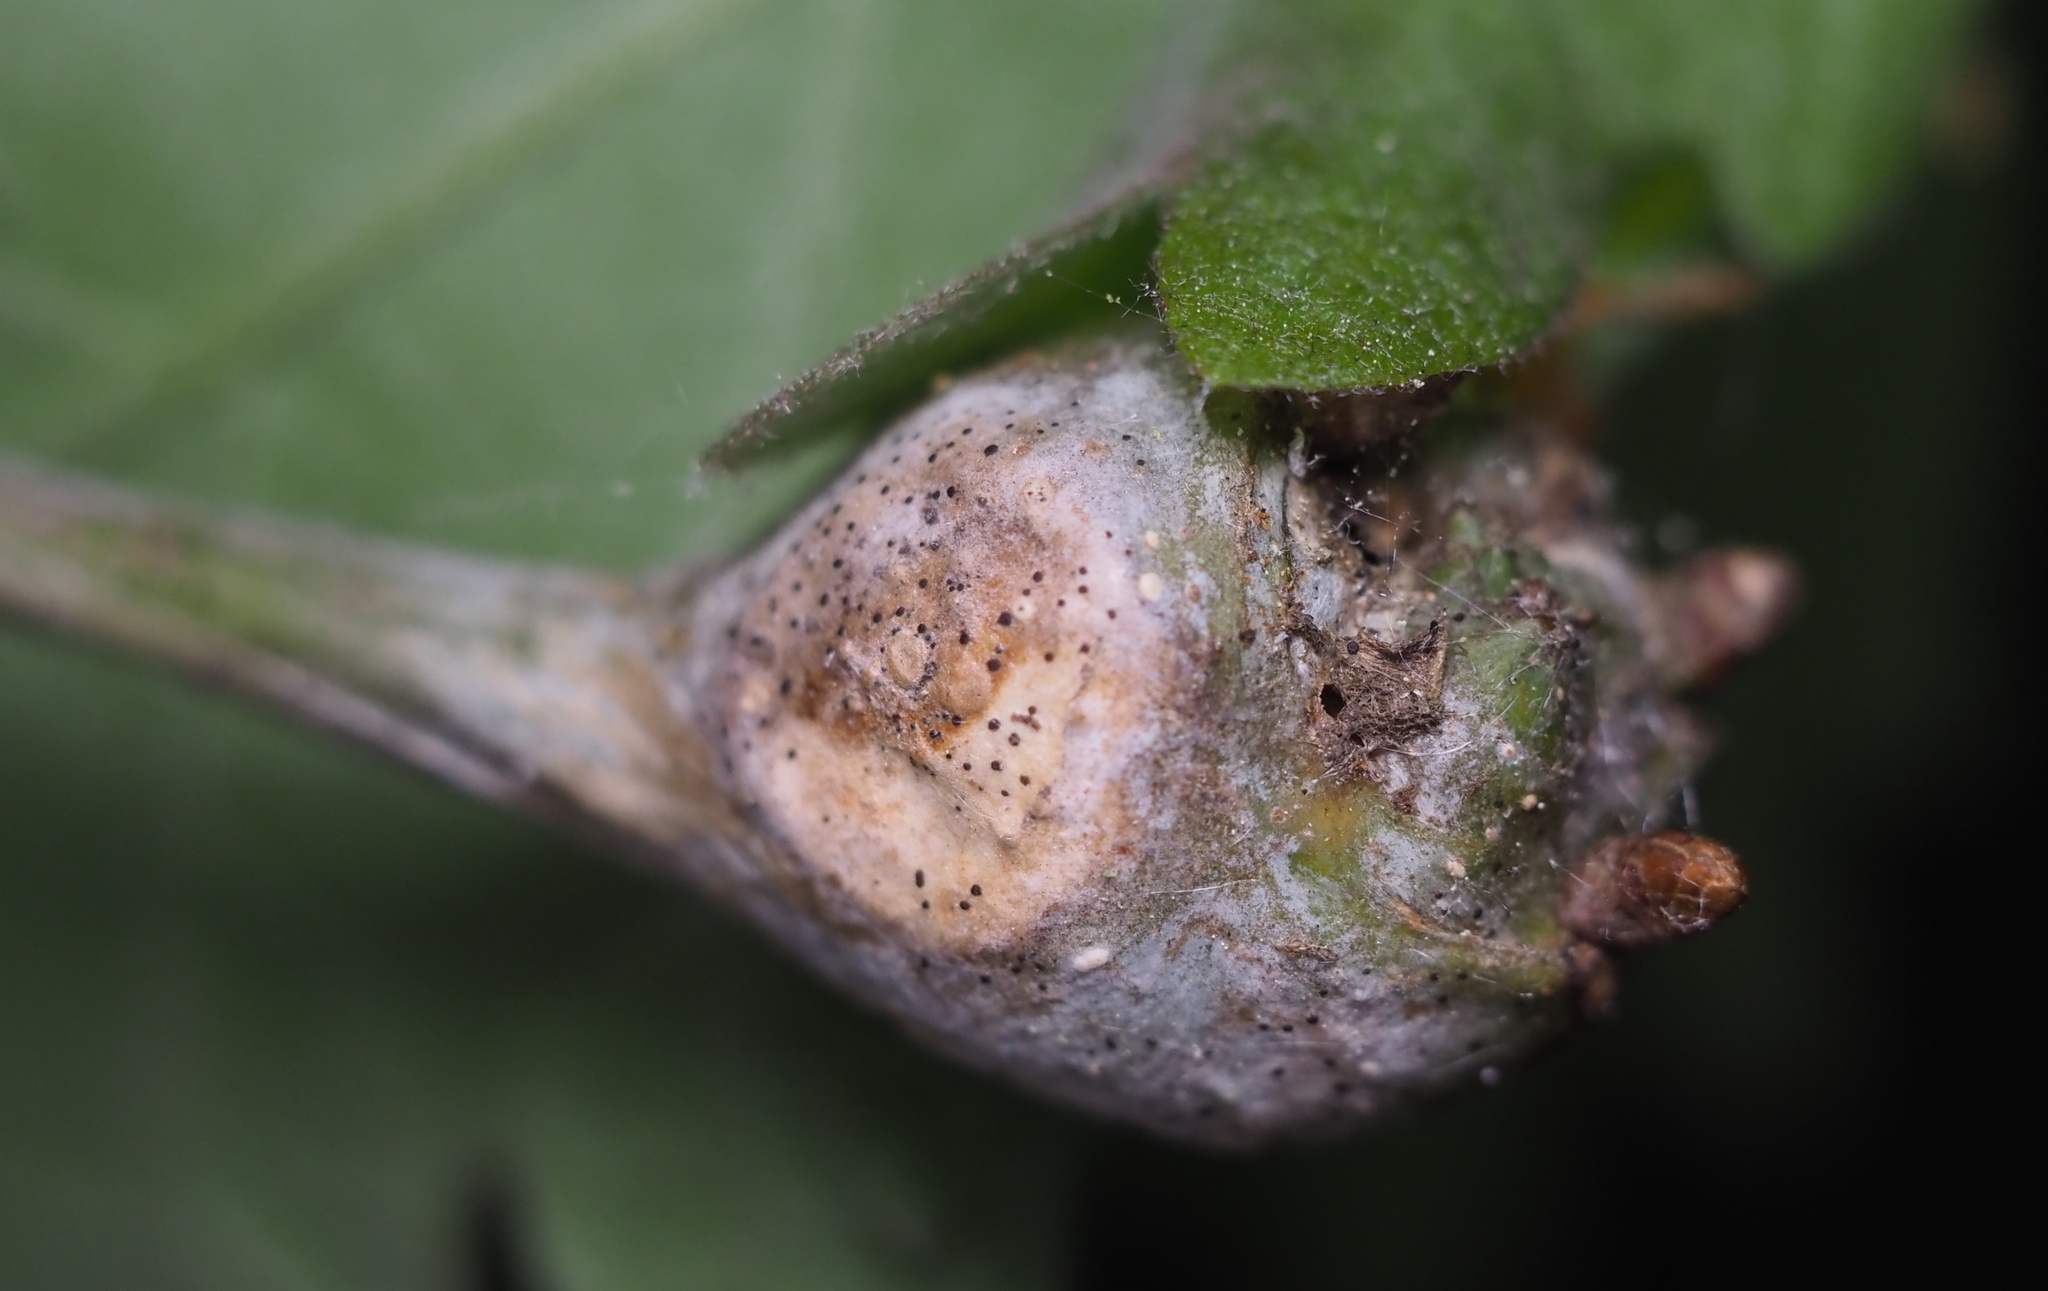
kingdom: Animalia
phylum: Arthropoda
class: Insecta
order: Hymenoptera
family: Cynipidae
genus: Callirhytis
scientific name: Callirhytis clavula
